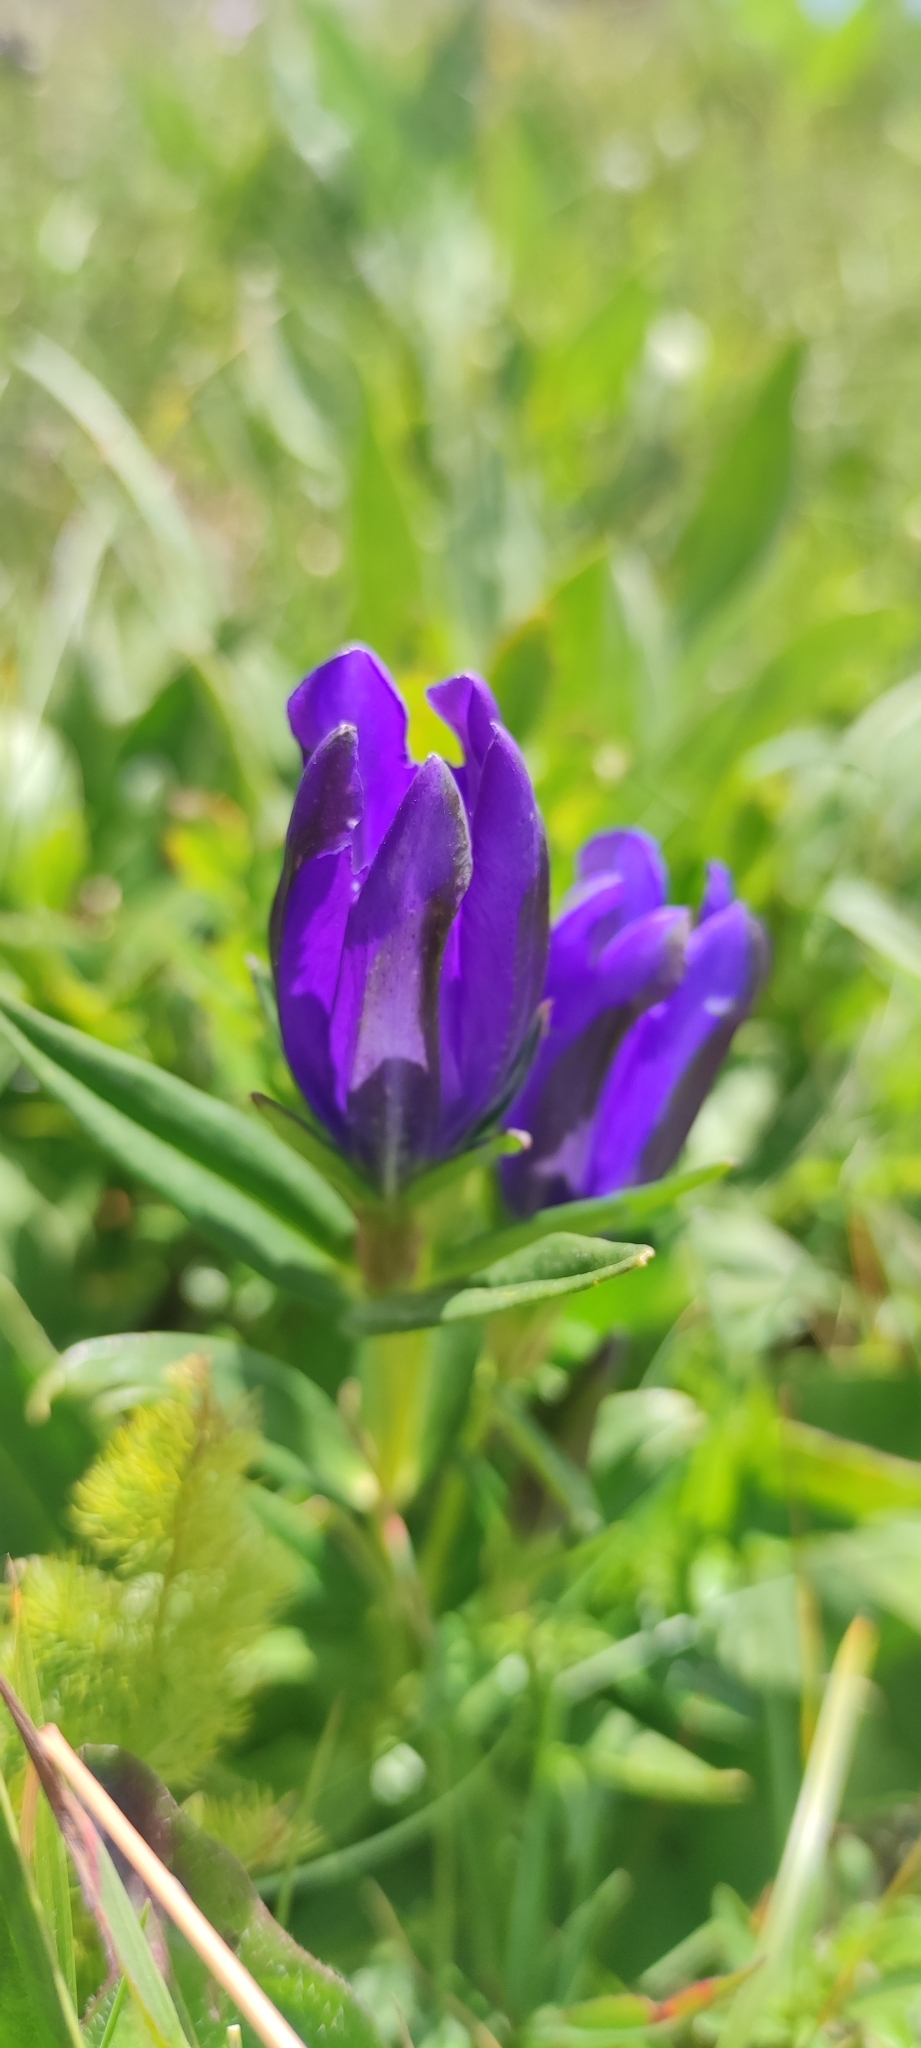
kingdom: Plantae
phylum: Tracheophyta
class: Magnoliopsida
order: Gentianales
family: Gentianaceae
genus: Gentiana
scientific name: Gentiana pneumonanthe
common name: Marsh gentian
